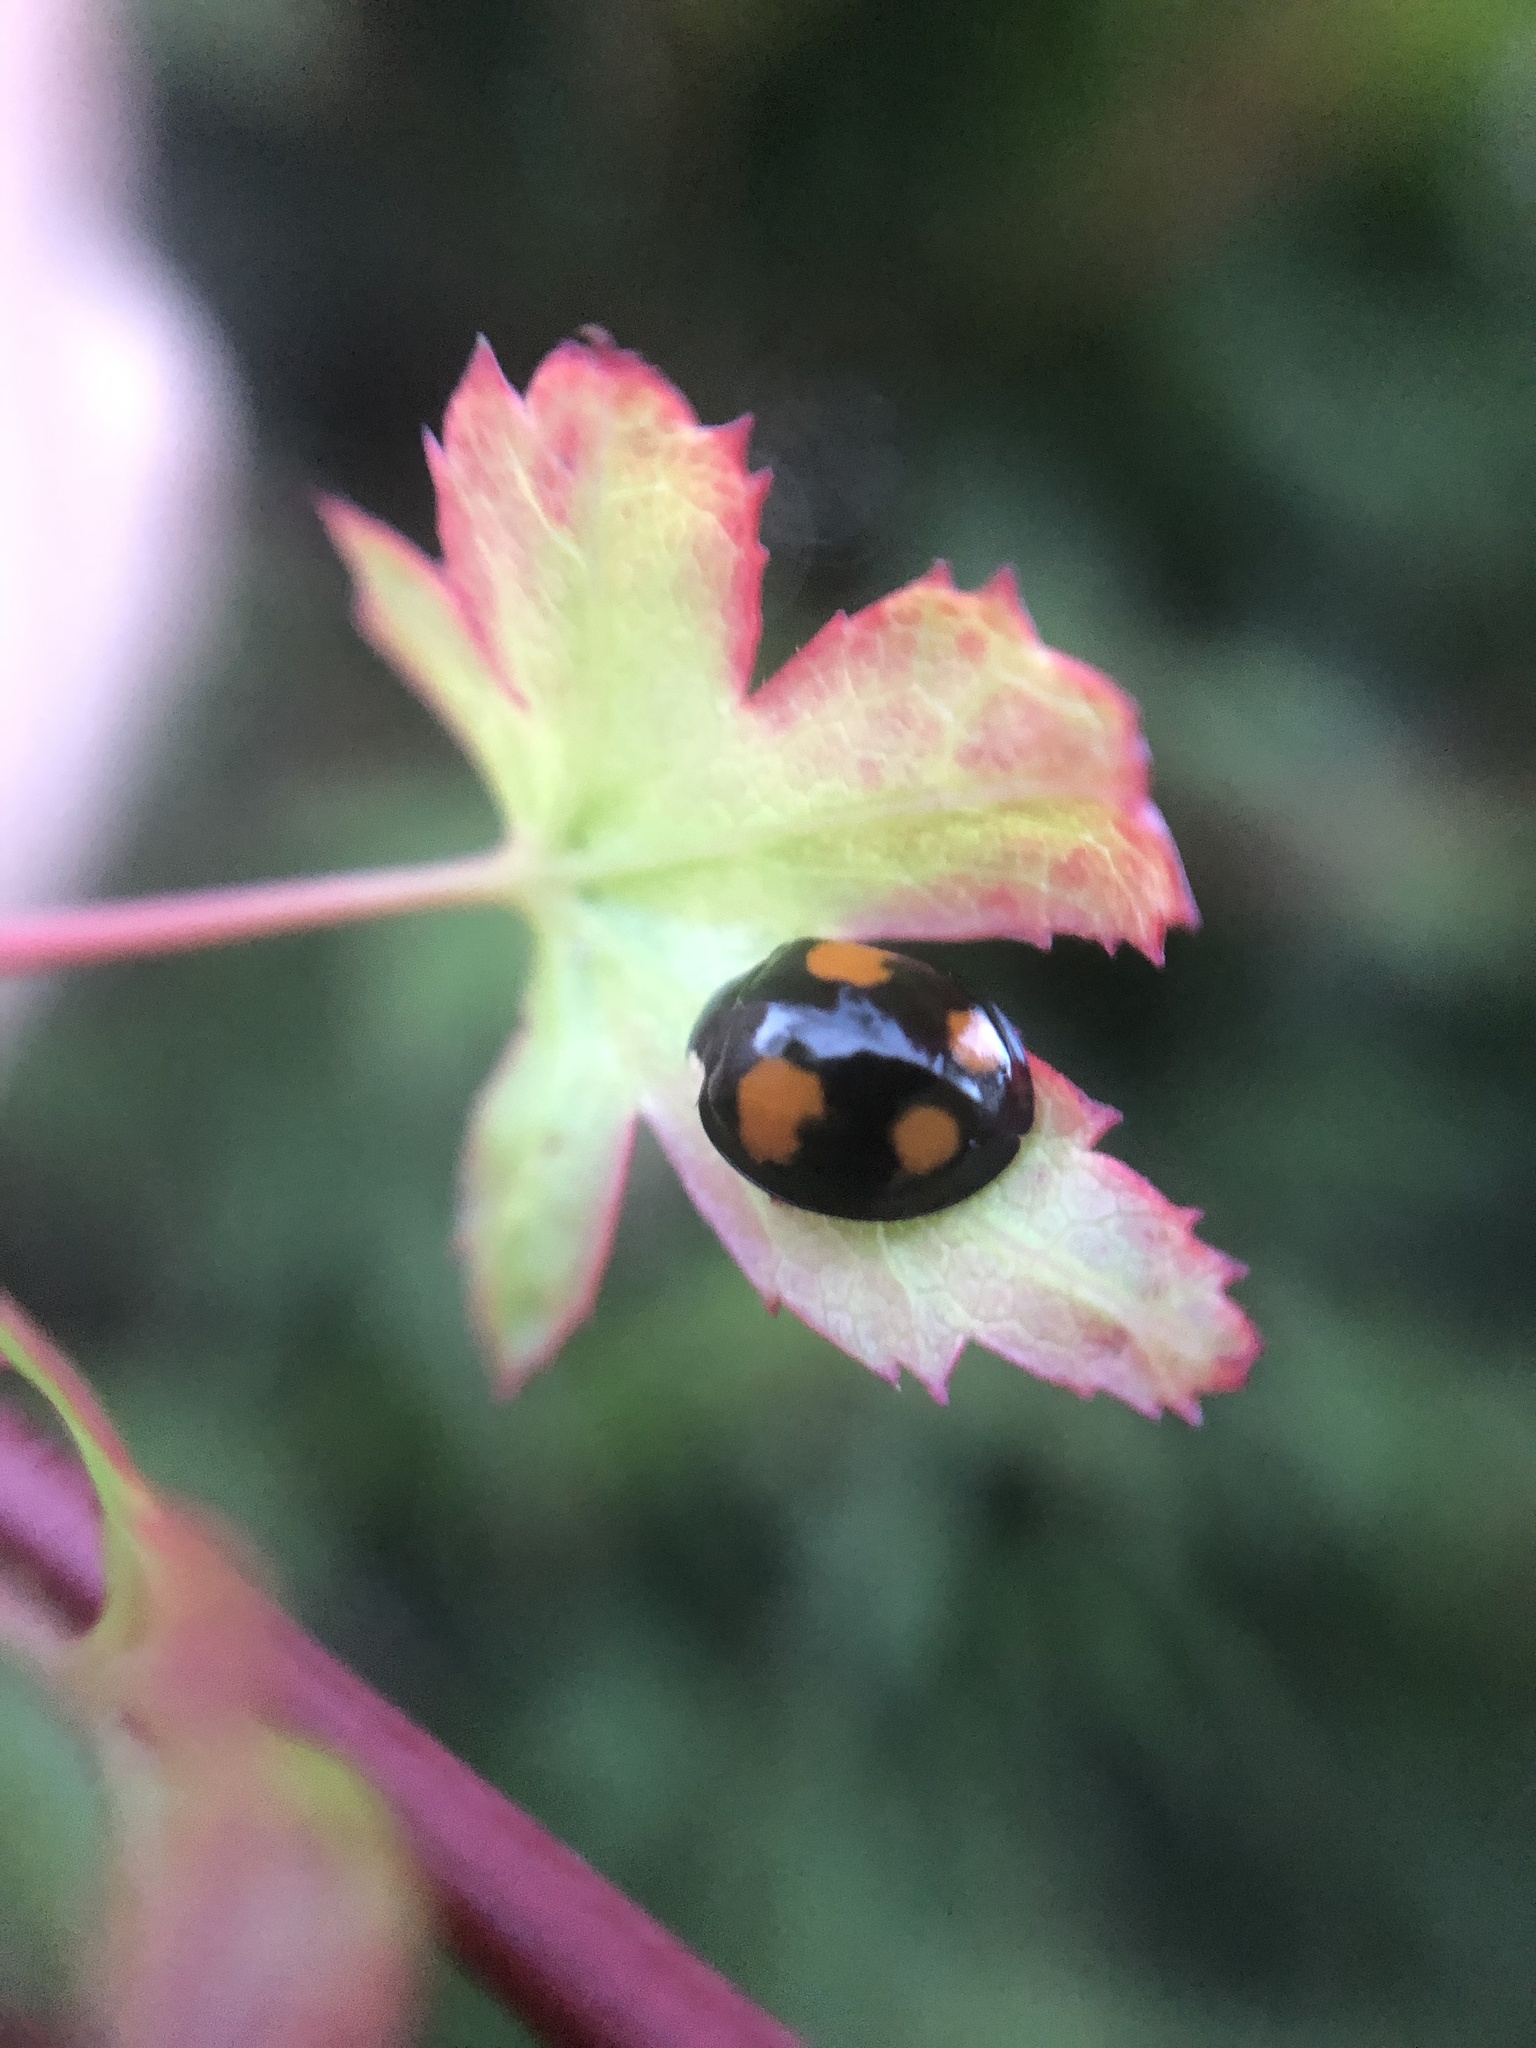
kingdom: Animalia
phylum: Arthropoda
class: Insecta
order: Coleoptera
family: Coccinellidae
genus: Harmonia
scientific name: Harmonia axyridis
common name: Harlequin ladybird
